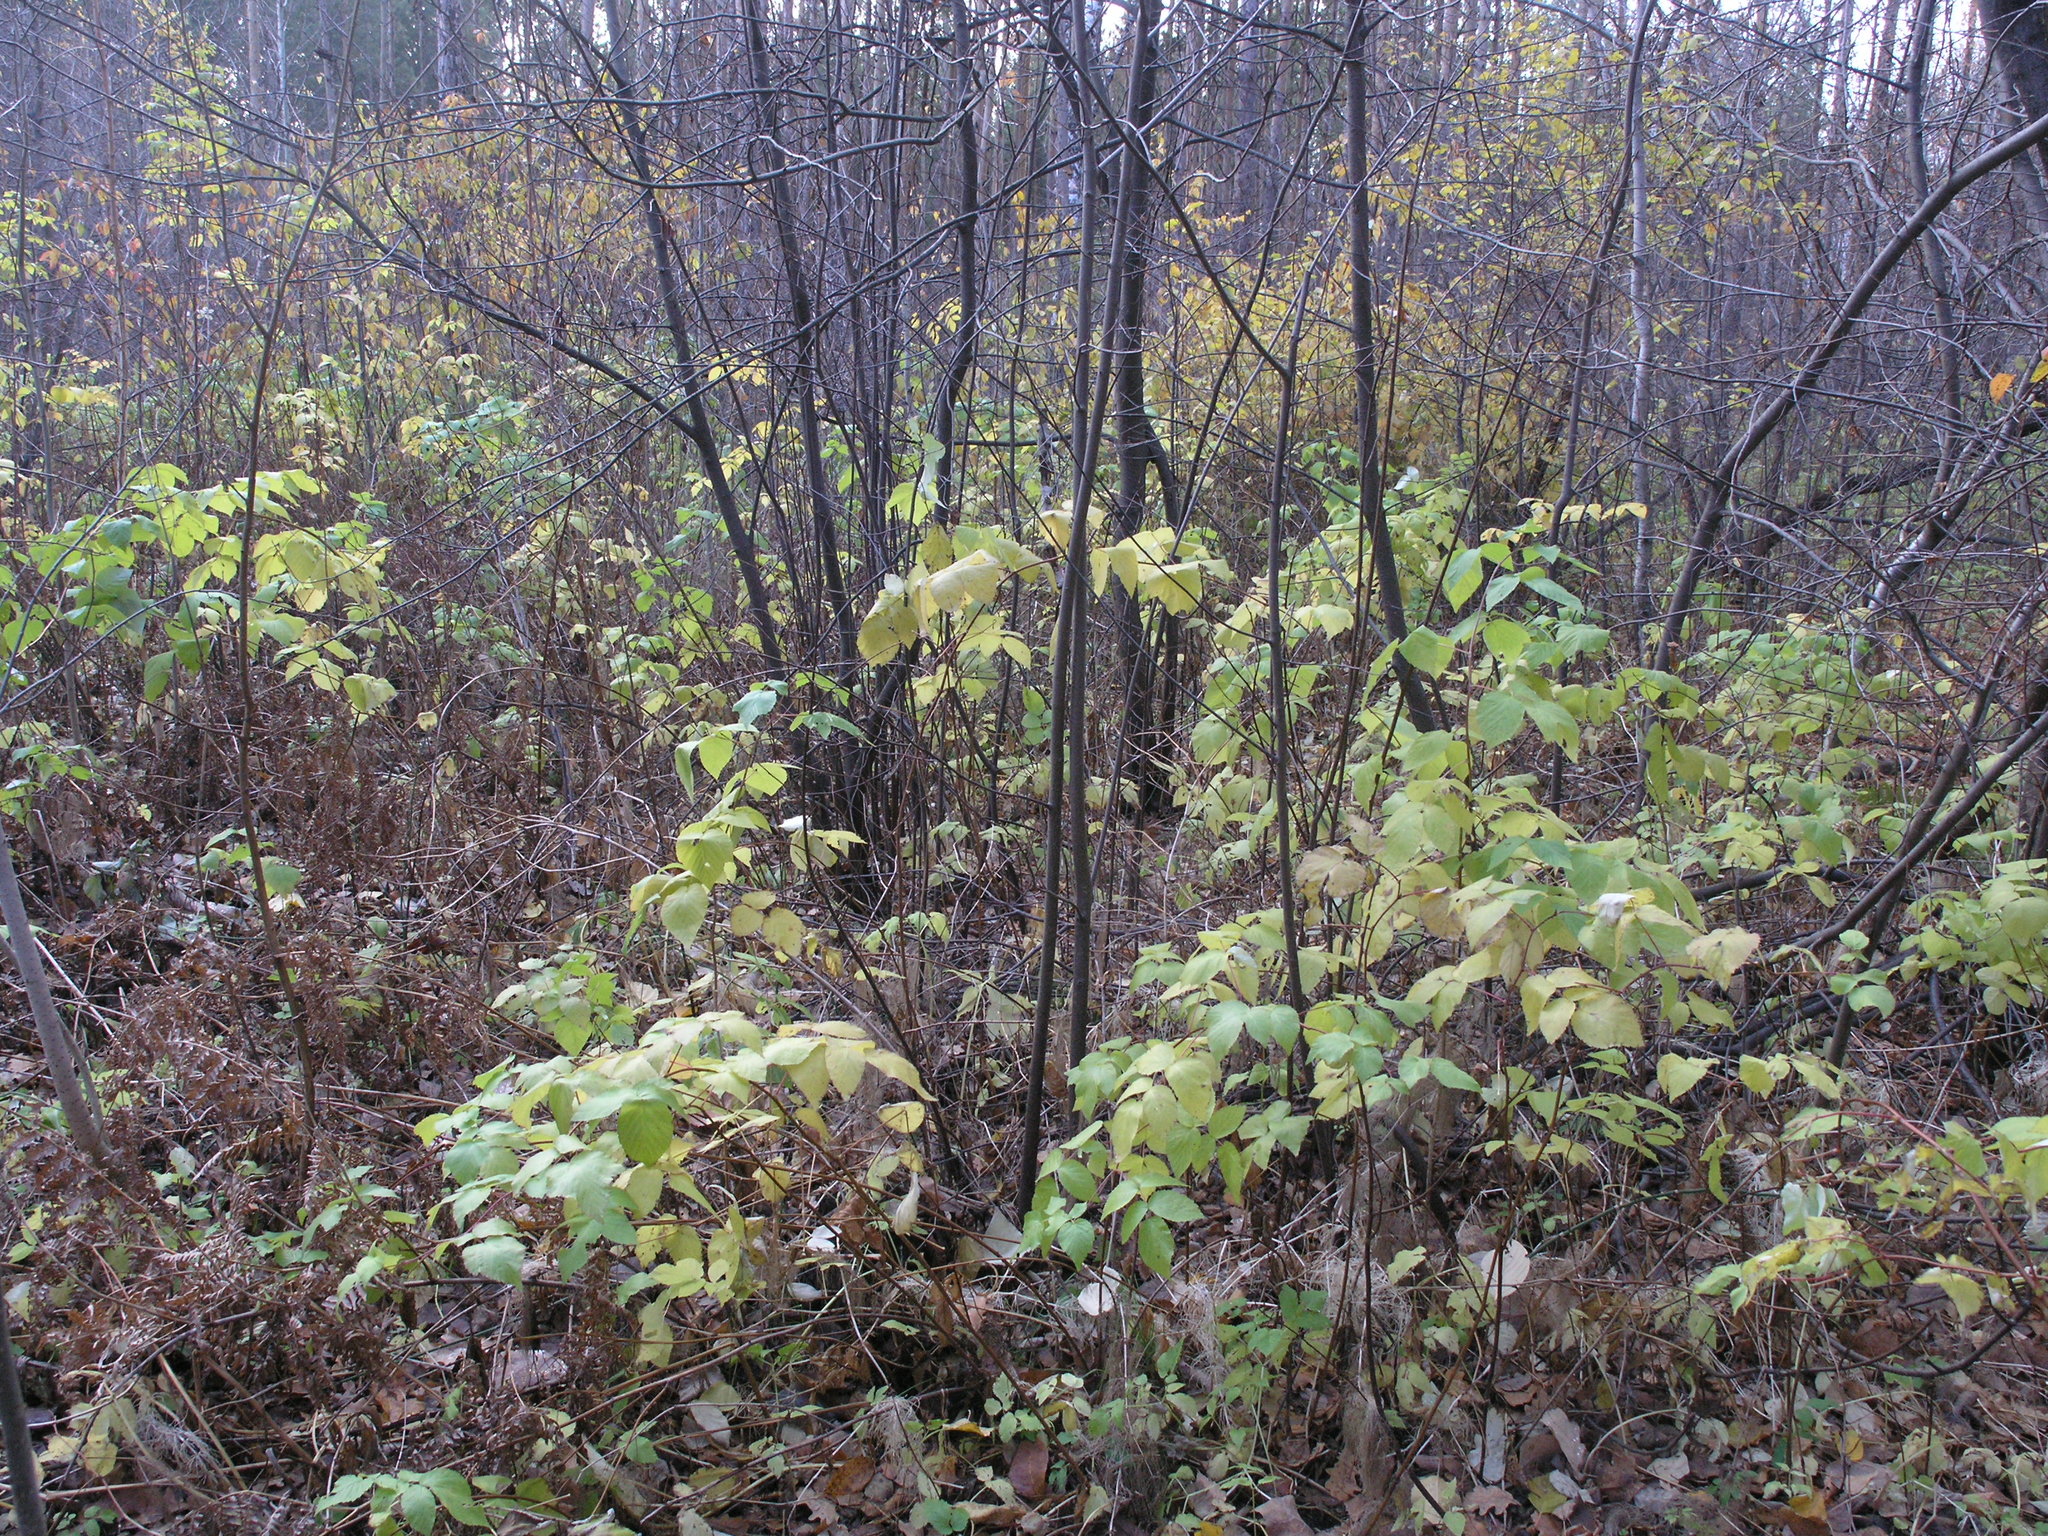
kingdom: Plantae
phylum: Tracheophyta
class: Magnoliopsida
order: Rosales
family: Rosaceae
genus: Rubus
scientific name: Rubus idaeus
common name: Raspberry
